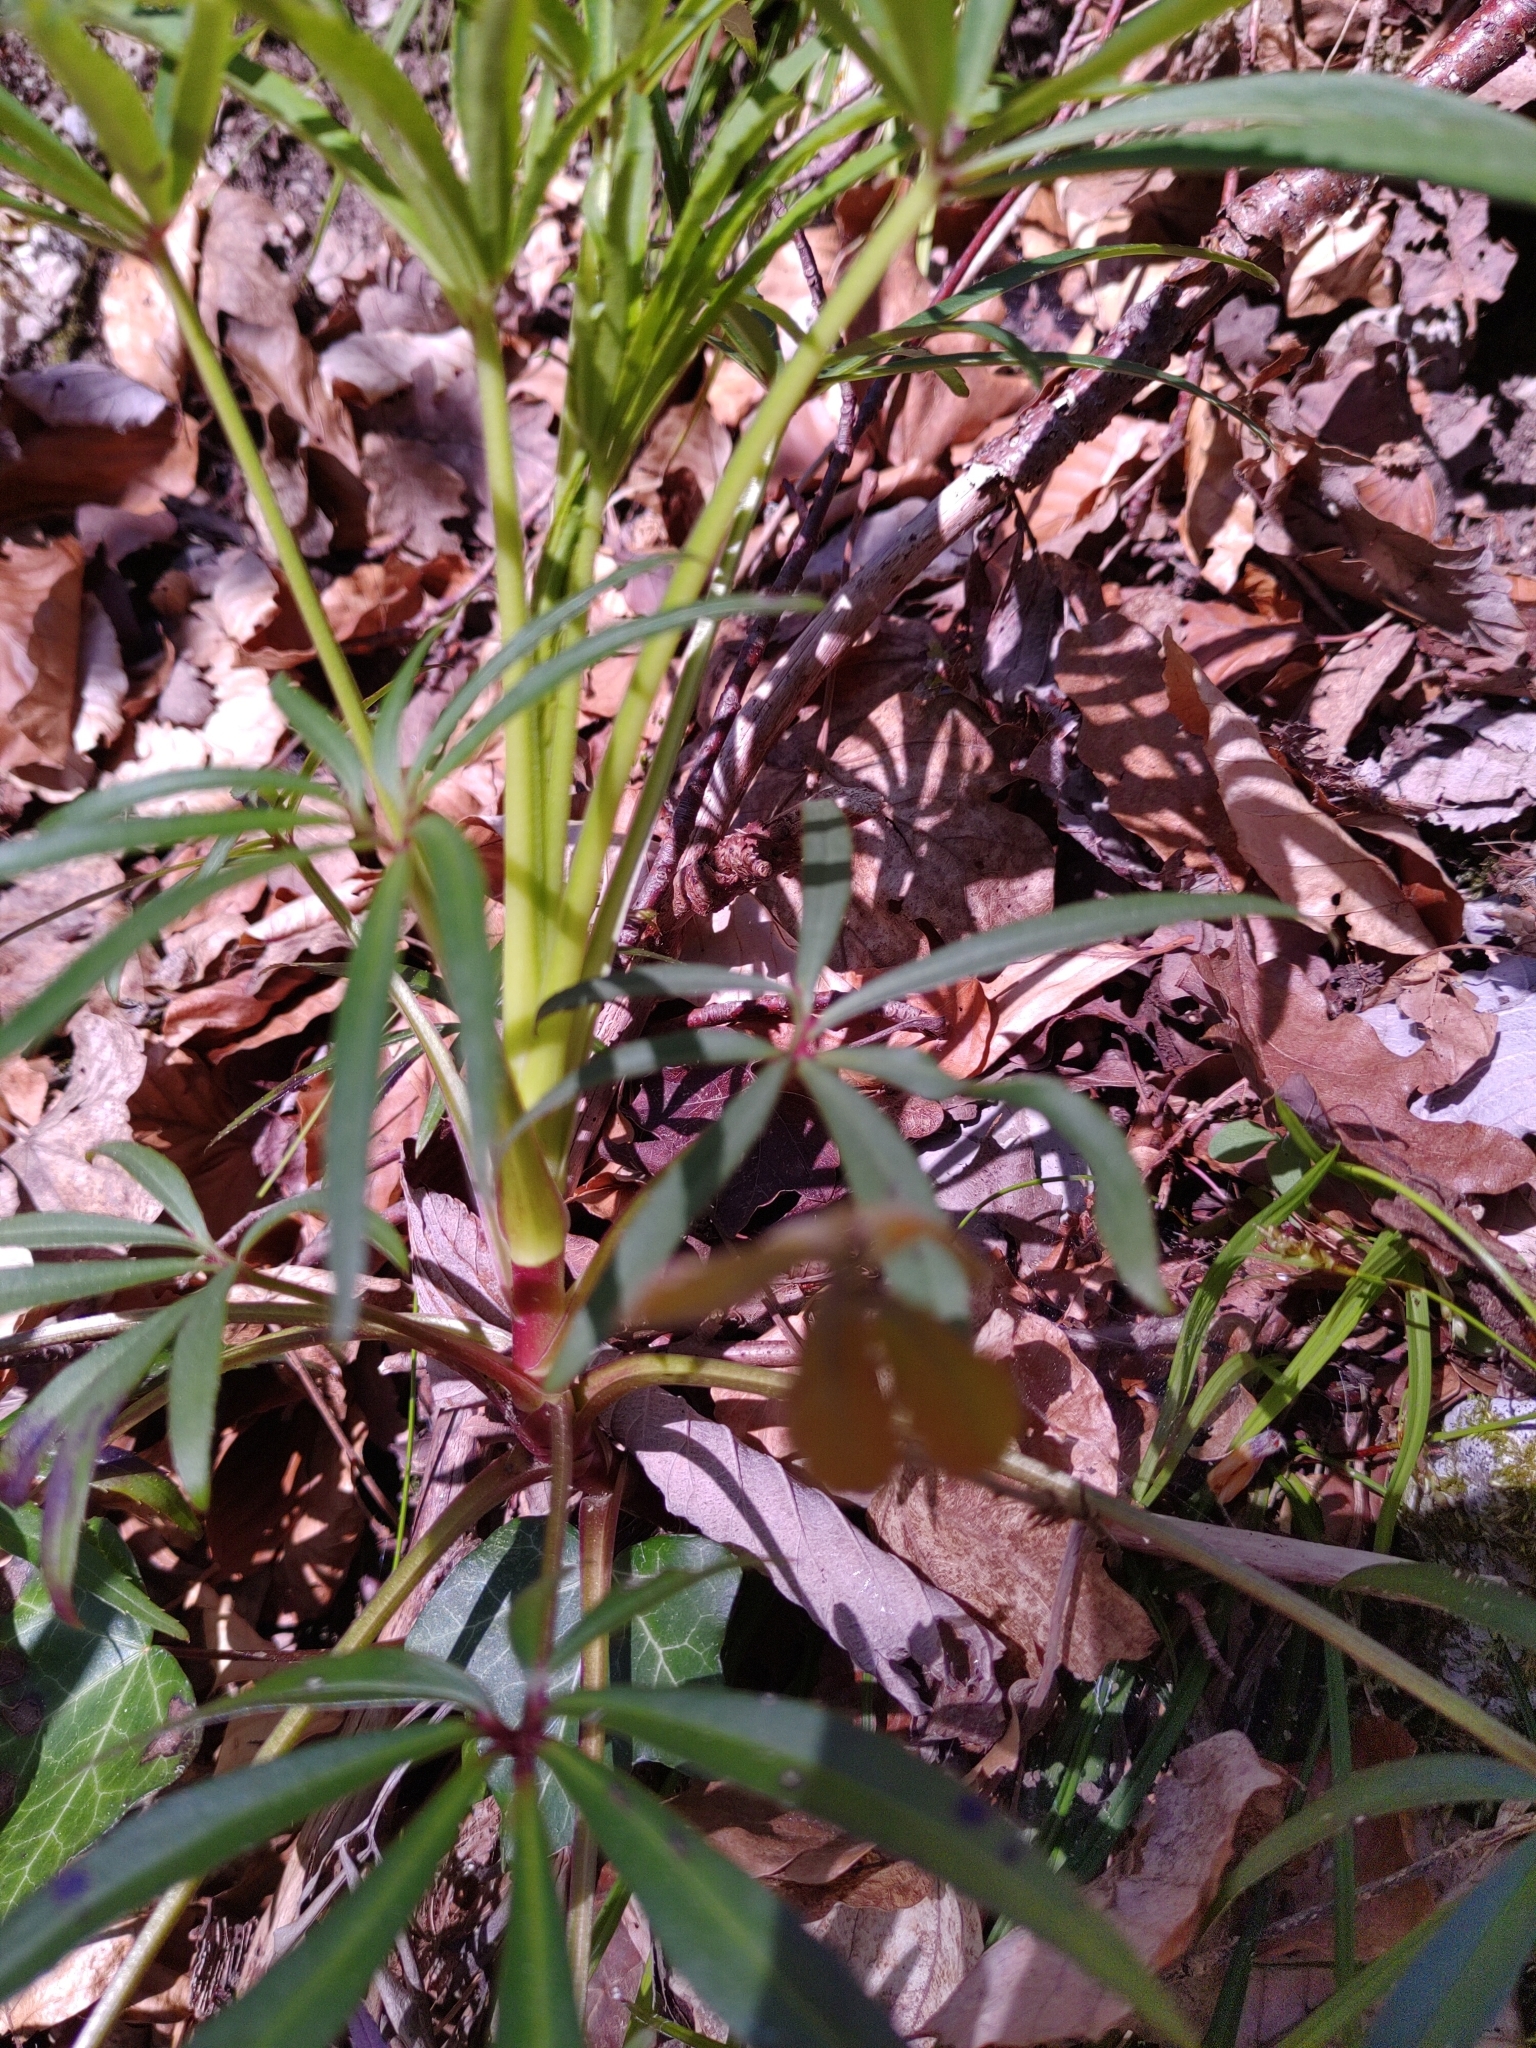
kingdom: Plantae
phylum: Tracheophyta
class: Magnoliopsida
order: Ranunculales
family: Ranunculaceae
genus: Helleborus
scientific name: Helleborus foetidus
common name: Stinking hellebore
